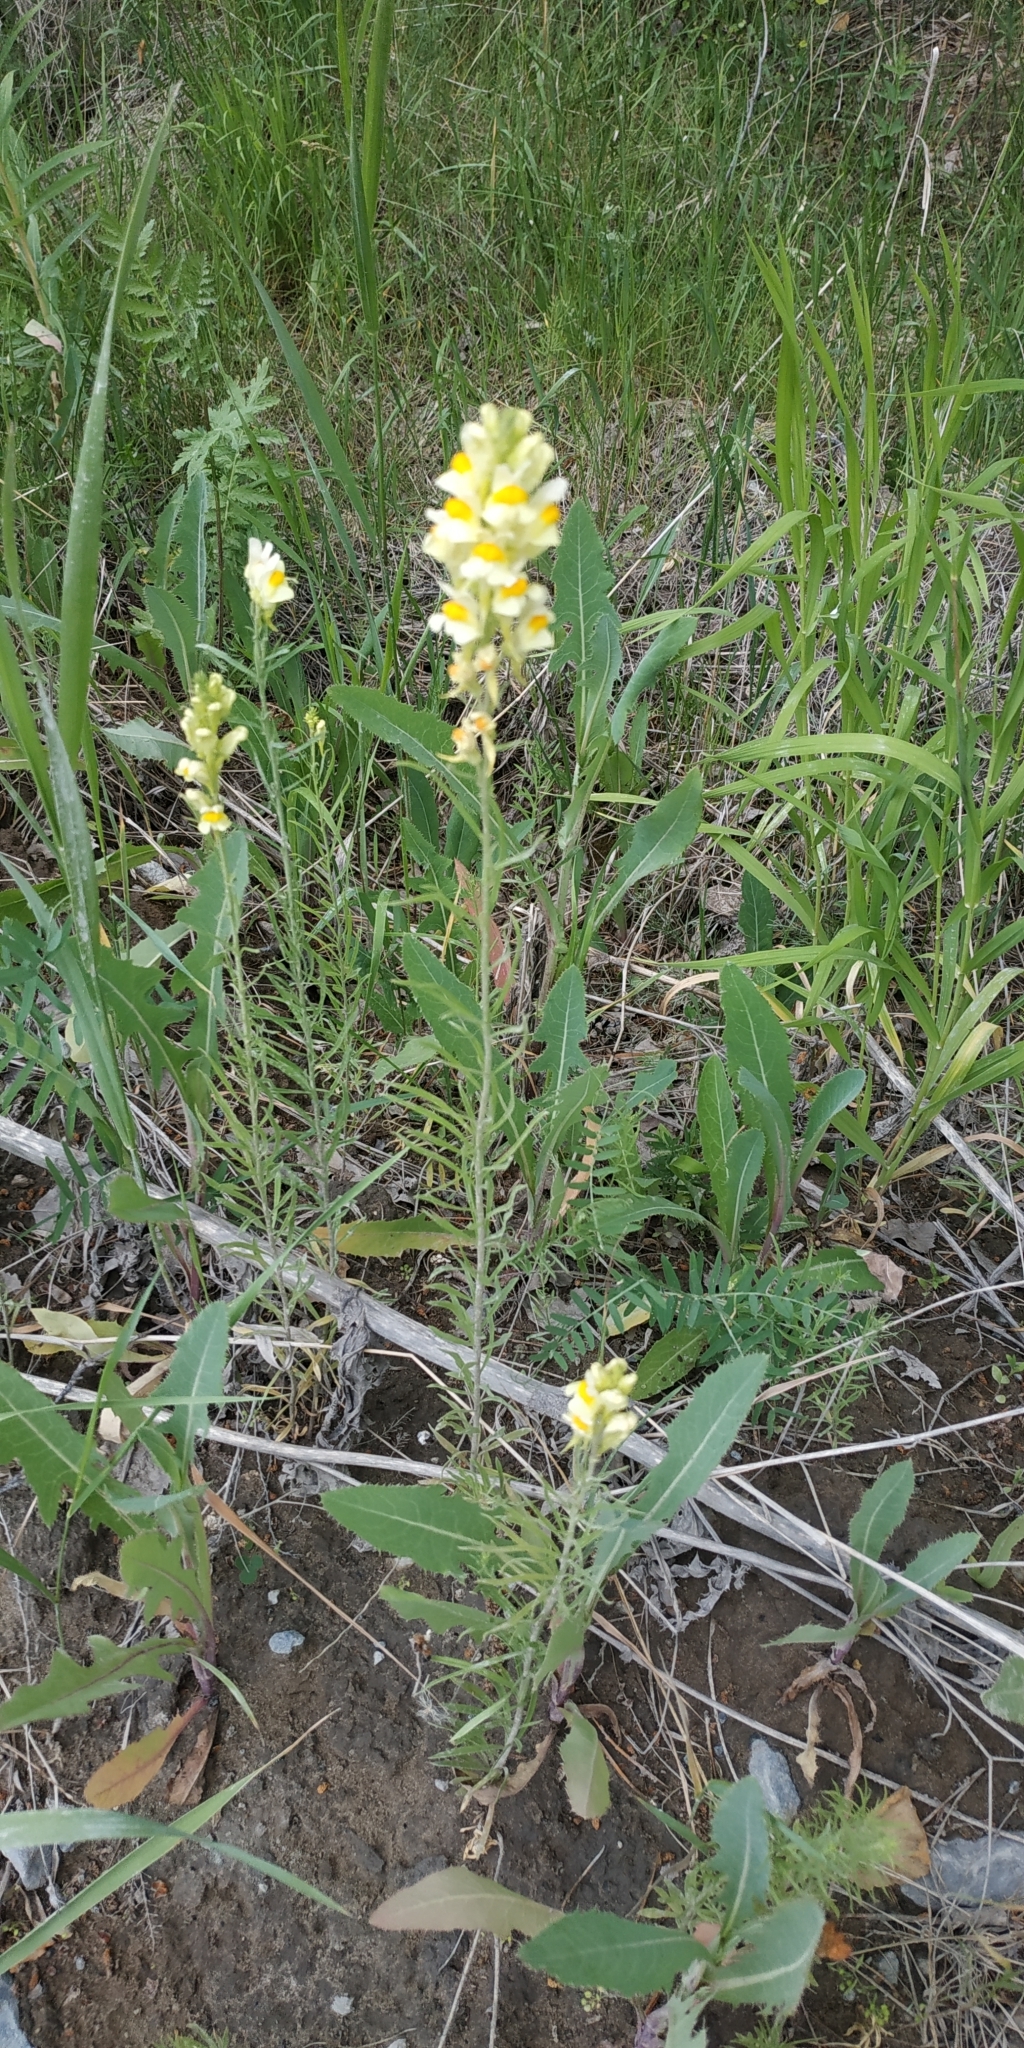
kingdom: Plantae
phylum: Tracheophyta
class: Magnoliopsida
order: Lamiales
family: Plantaginaceae
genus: Linaria
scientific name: Linaria vulgaris
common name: Butter and eggs
